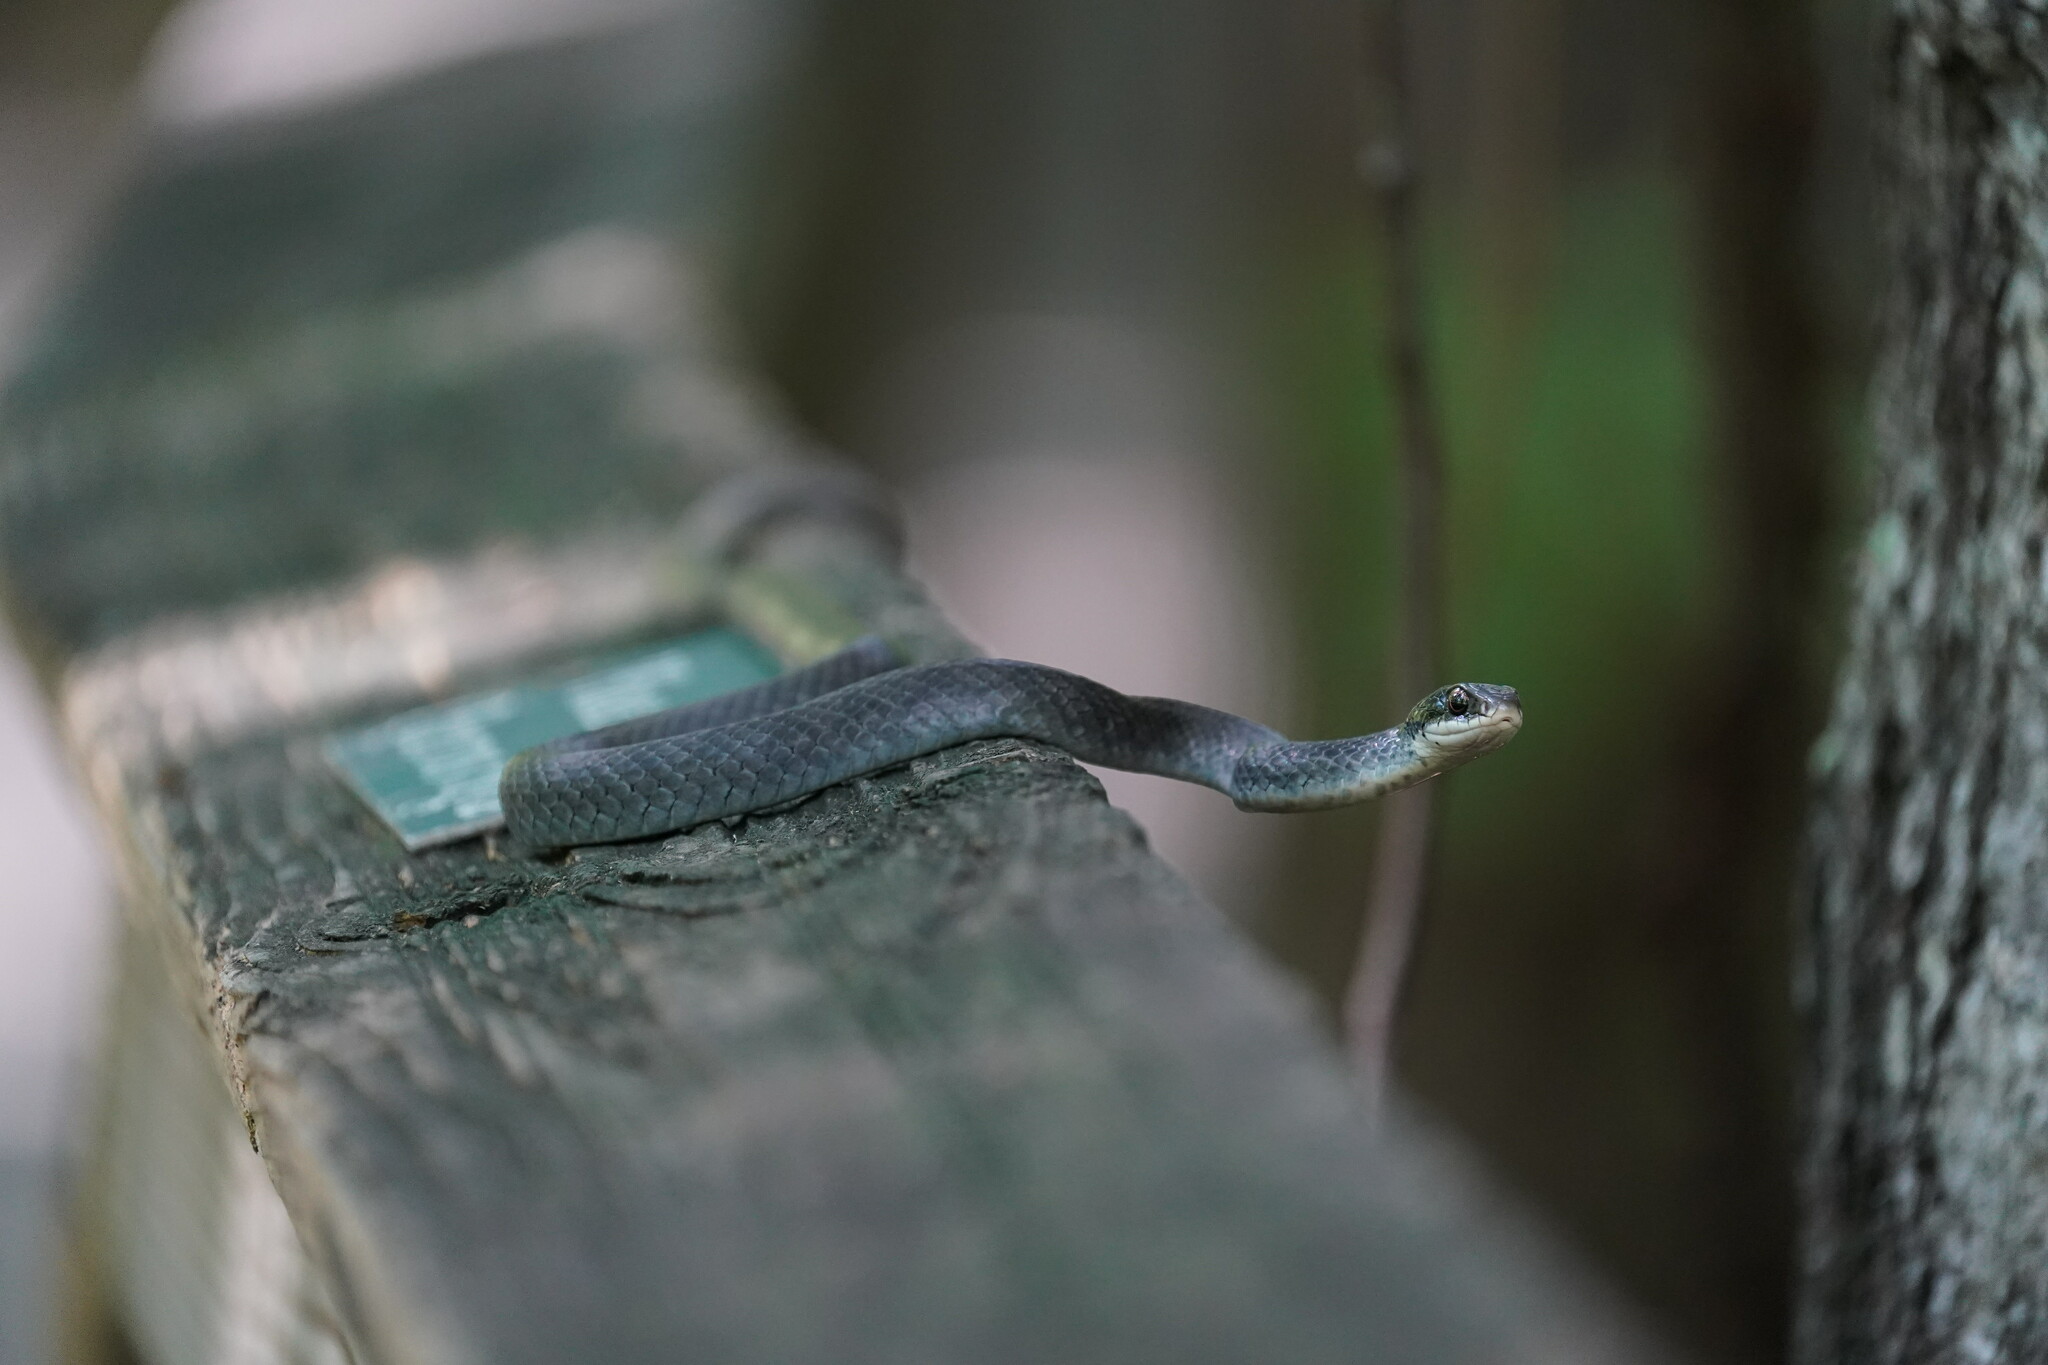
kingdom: Animalia
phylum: Chordata
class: Squamata
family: Colubridae
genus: Coluber
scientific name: Coluber constrictor
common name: Eastern racer
